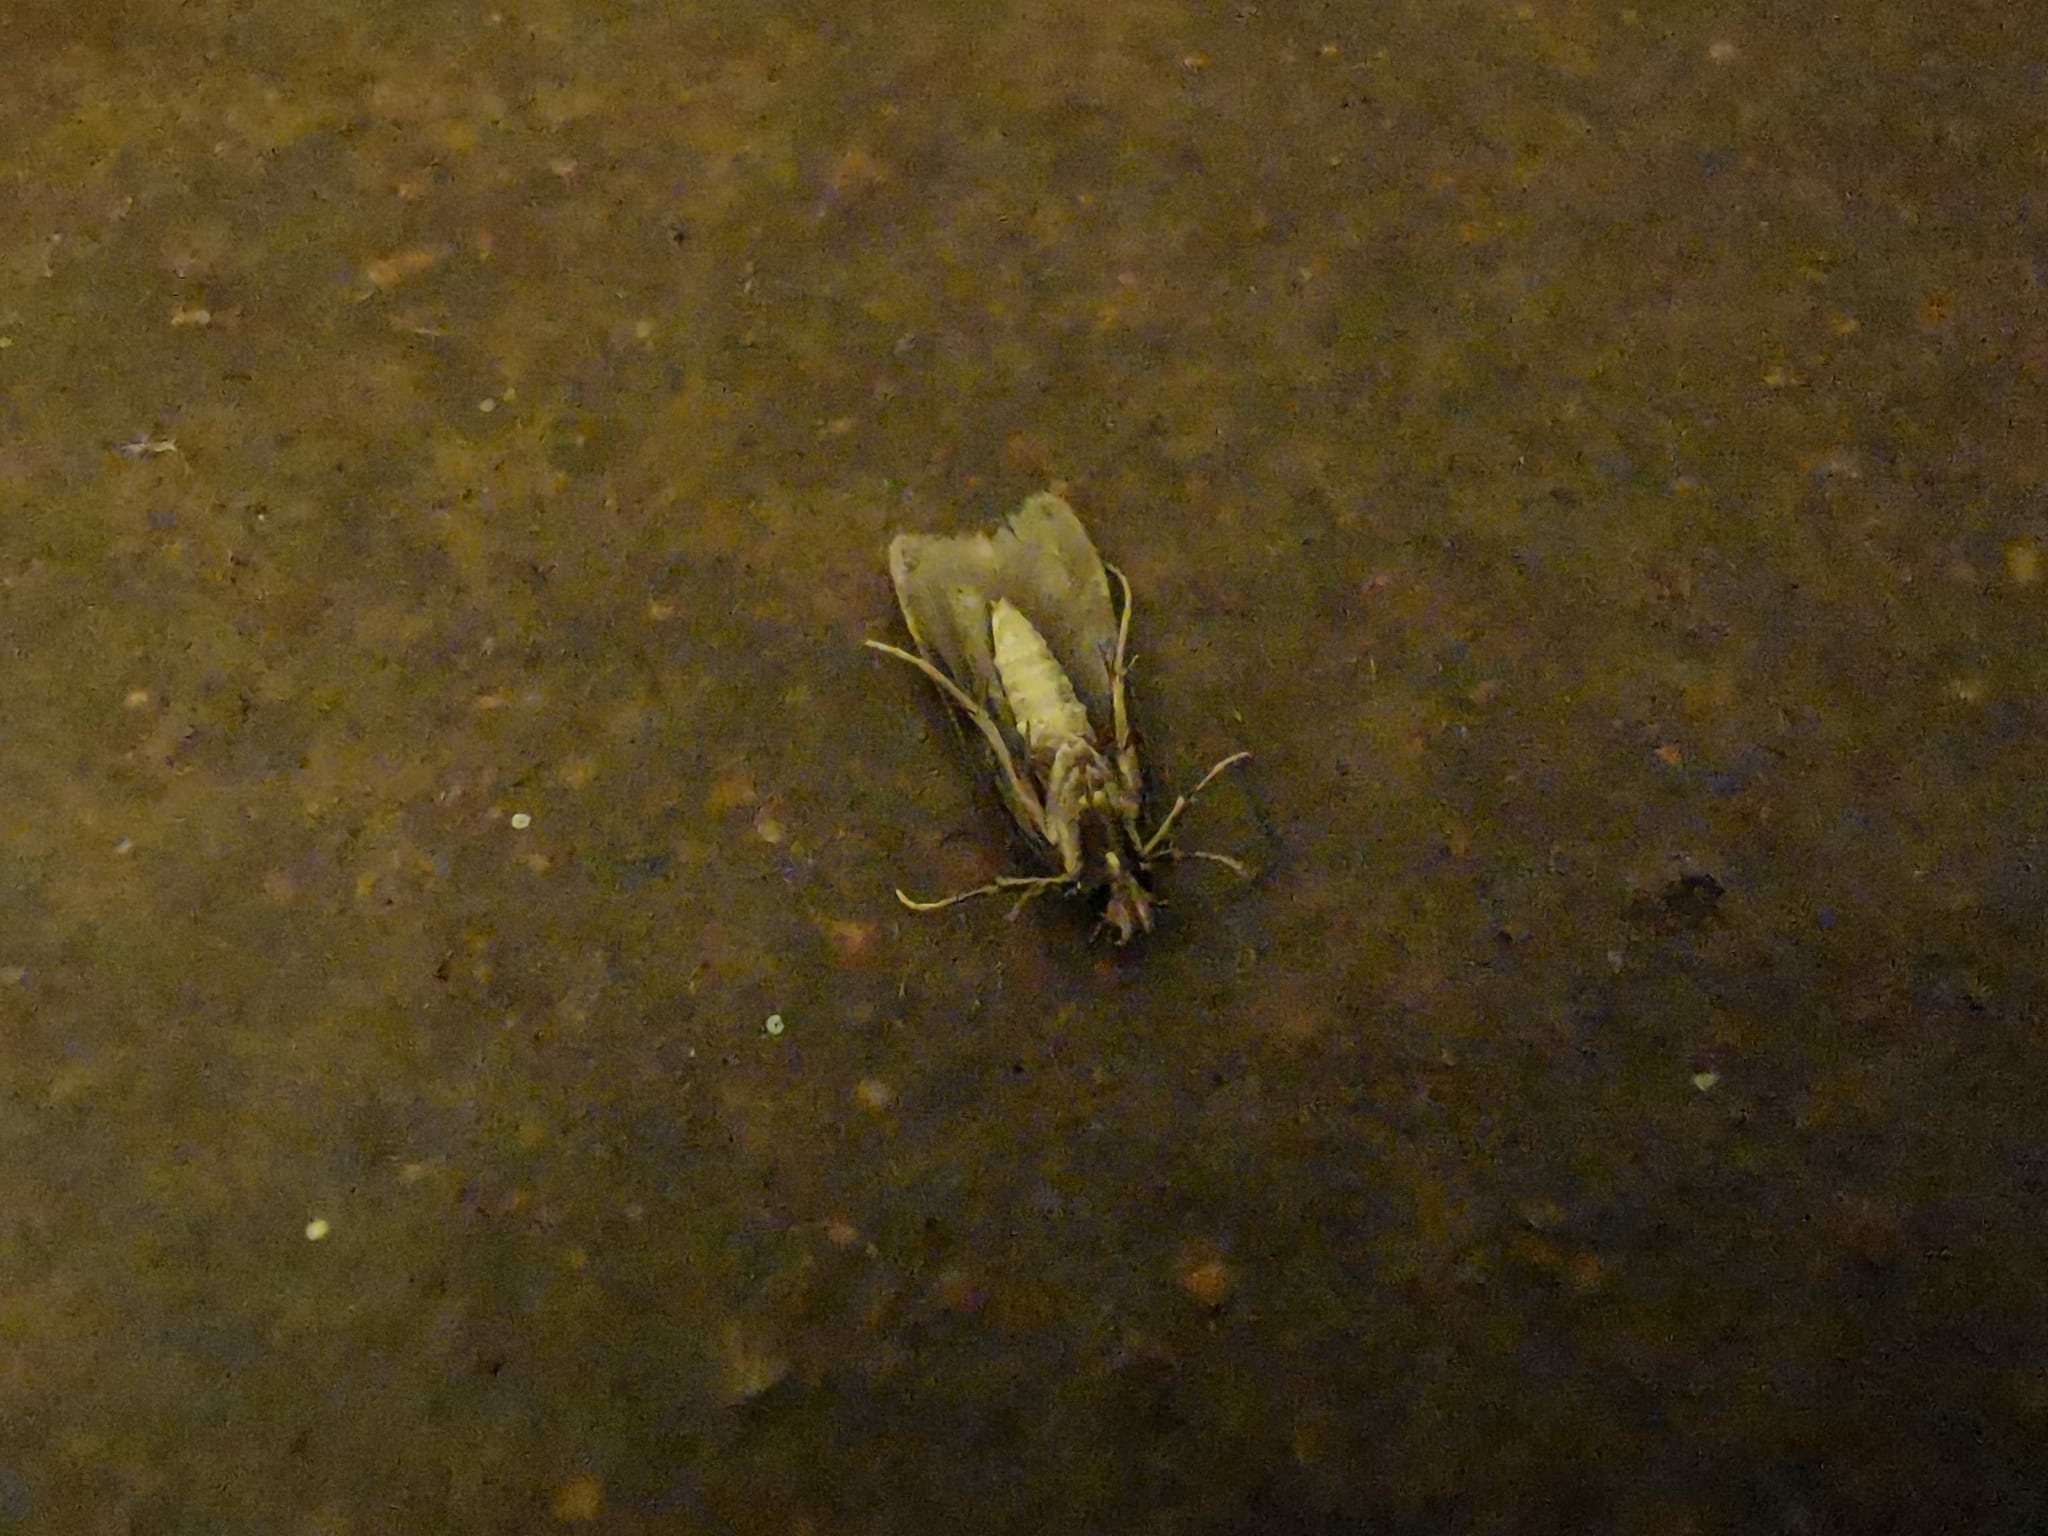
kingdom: Animalia
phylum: Arthropoda
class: Insecta
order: Lepidoptera
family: Oecophoridae
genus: Endrosis
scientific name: Endrosis sarcitrella
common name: White-shouldered house moth
